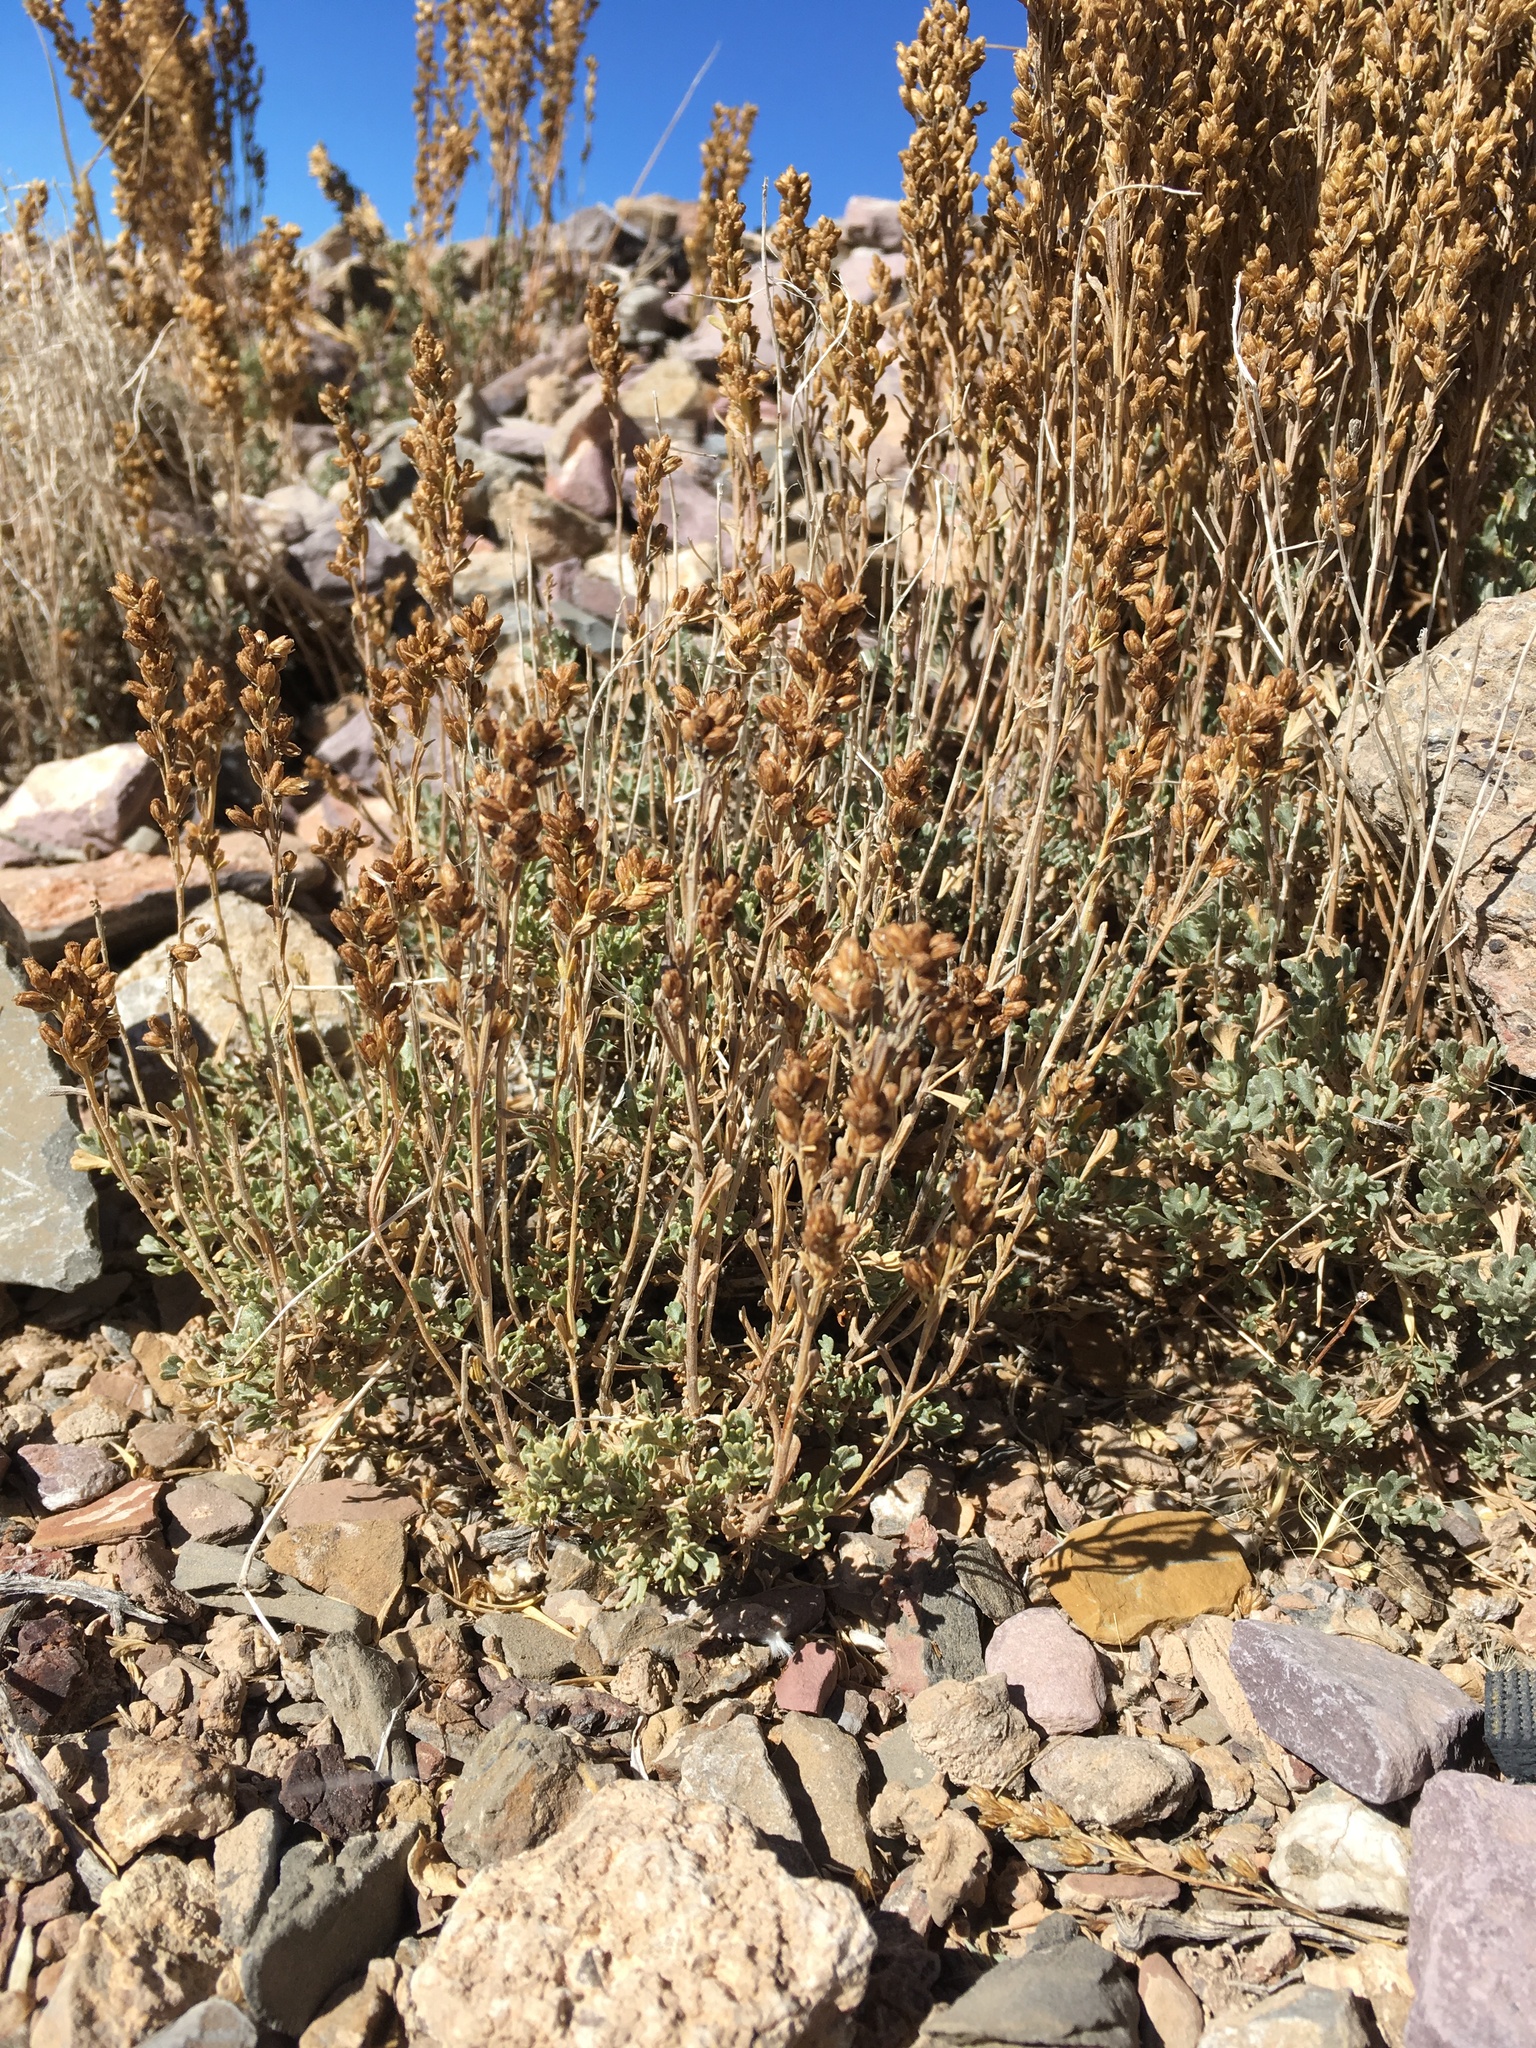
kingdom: Plantae
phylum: Tracheophyta
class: Magnoliopsida
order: Asterales
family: Asteraceae
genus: Artemisia
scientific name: Artemisia nova
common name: Black-sage
